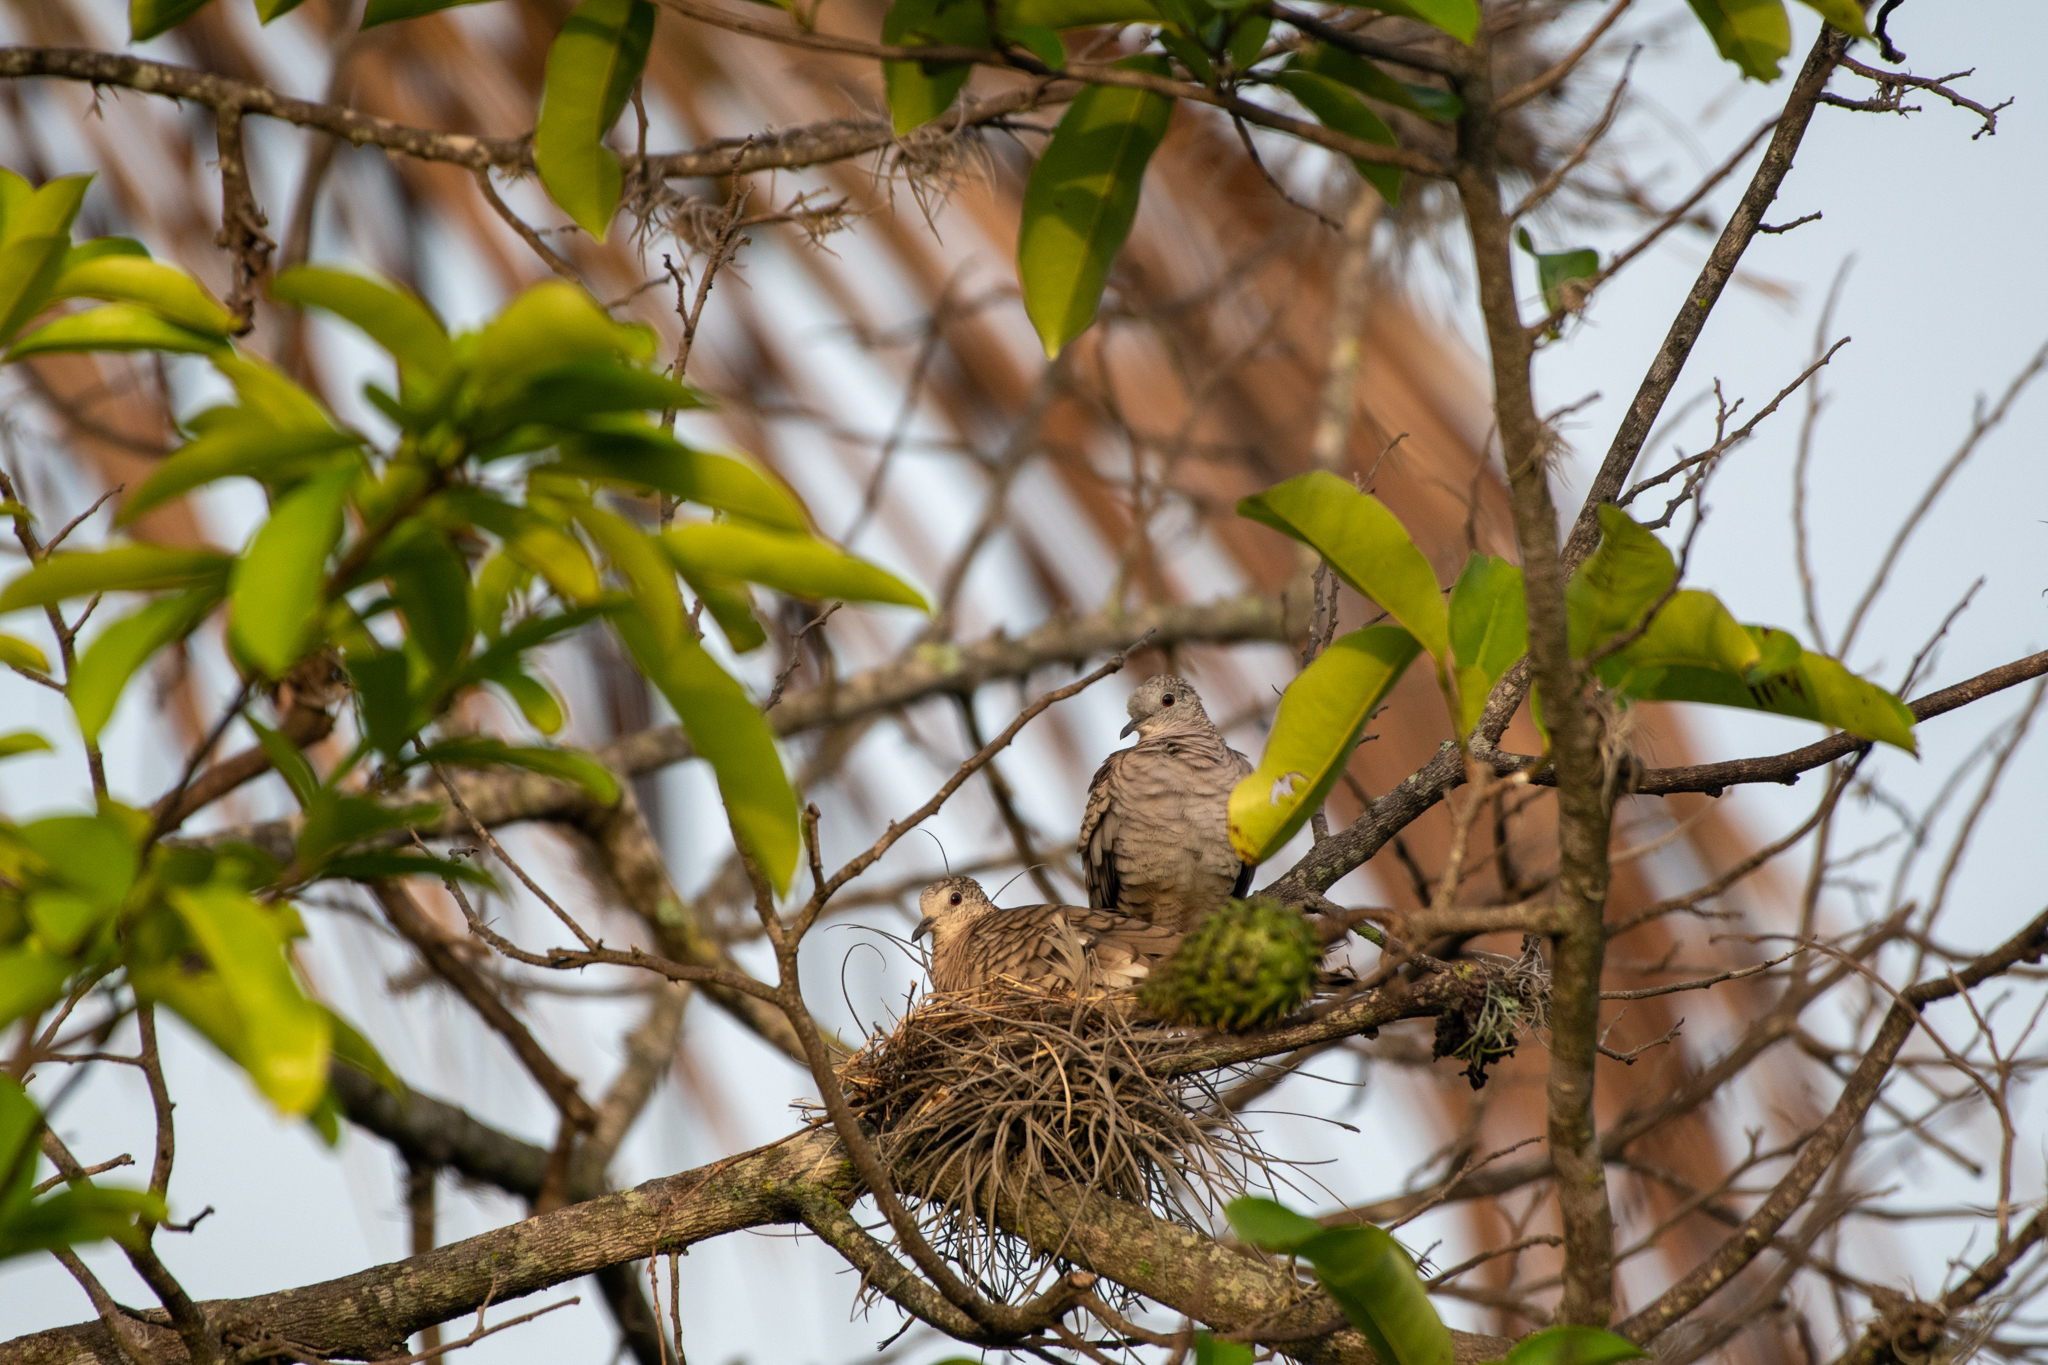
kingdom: Animalia
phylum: Chordata
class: Aves
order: Columbiformes
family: Columbidae
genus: Columbina
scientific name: Columbina inca
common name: Inca dove
